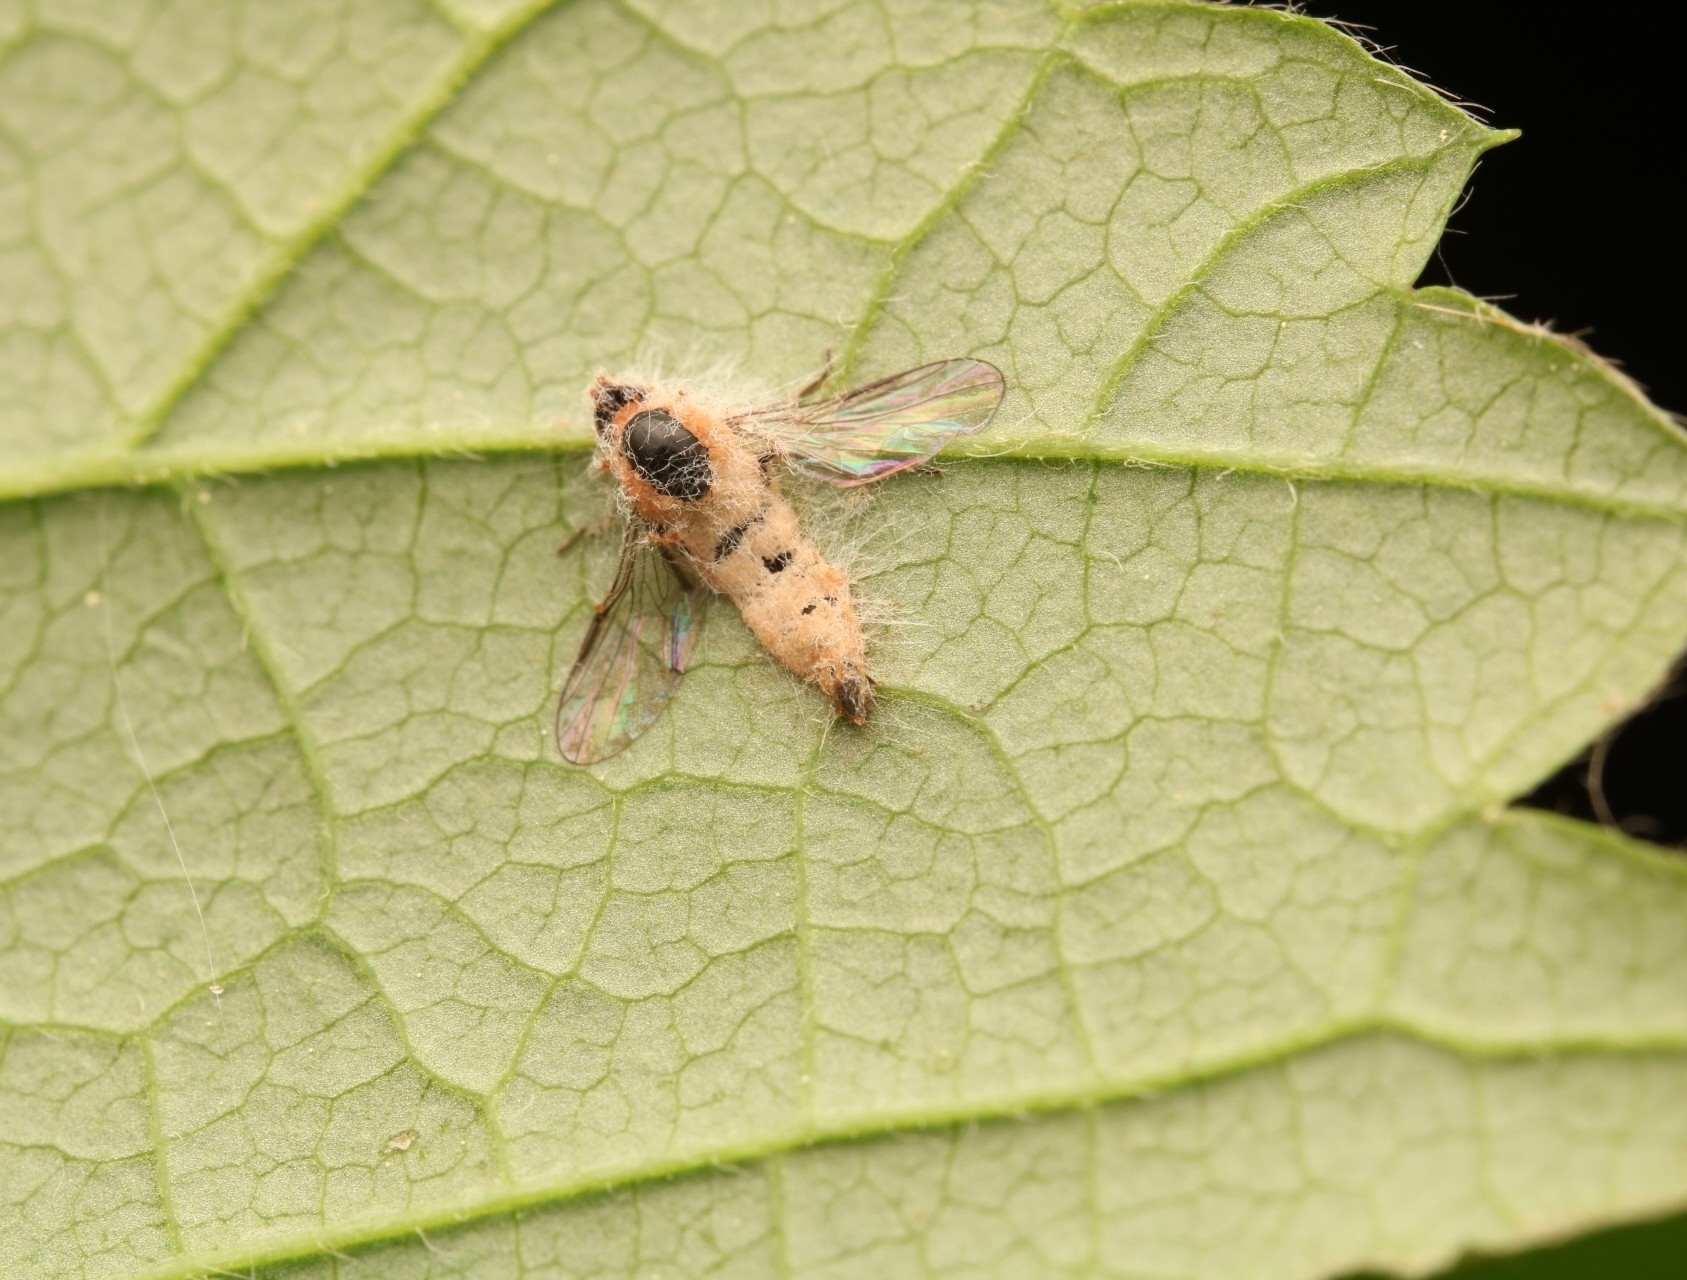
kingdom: Fungi
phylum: Entomophthoromycota
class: Entomophthoromycetes
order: Entomophthorales
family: Entomophthoraceae
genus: Furia
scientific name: Furia ithacensis
